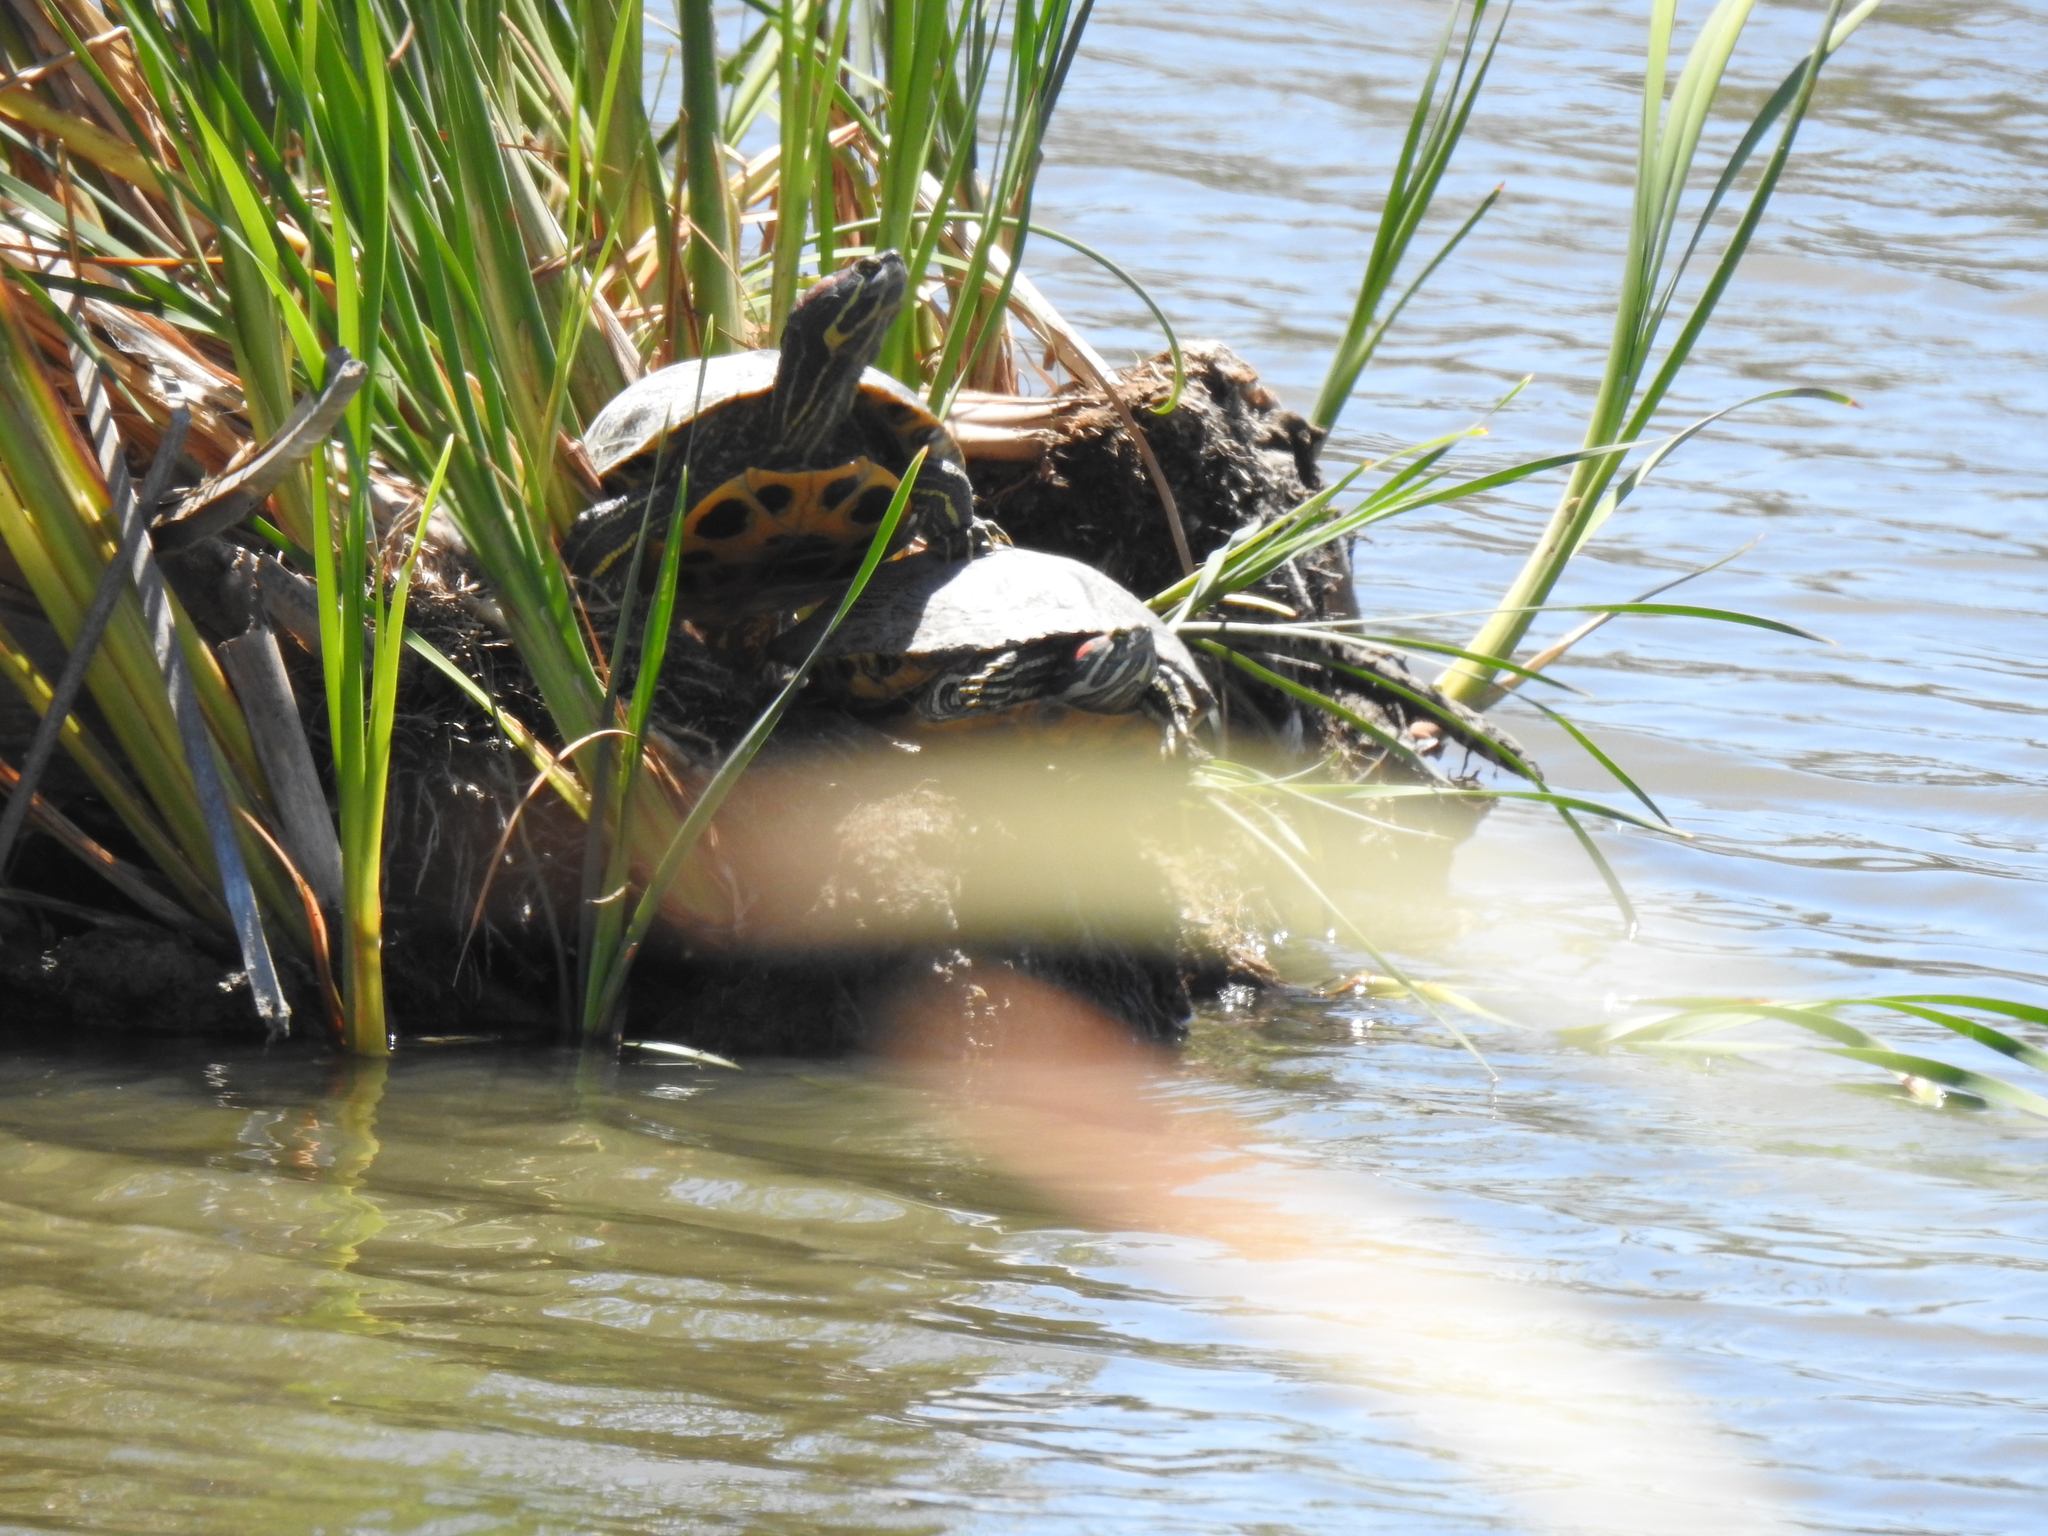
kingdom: Animalia
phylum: Chordata
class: Testudines
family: Emydidae
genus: Trachemys
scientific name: Trachemys scripta
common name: Slider
